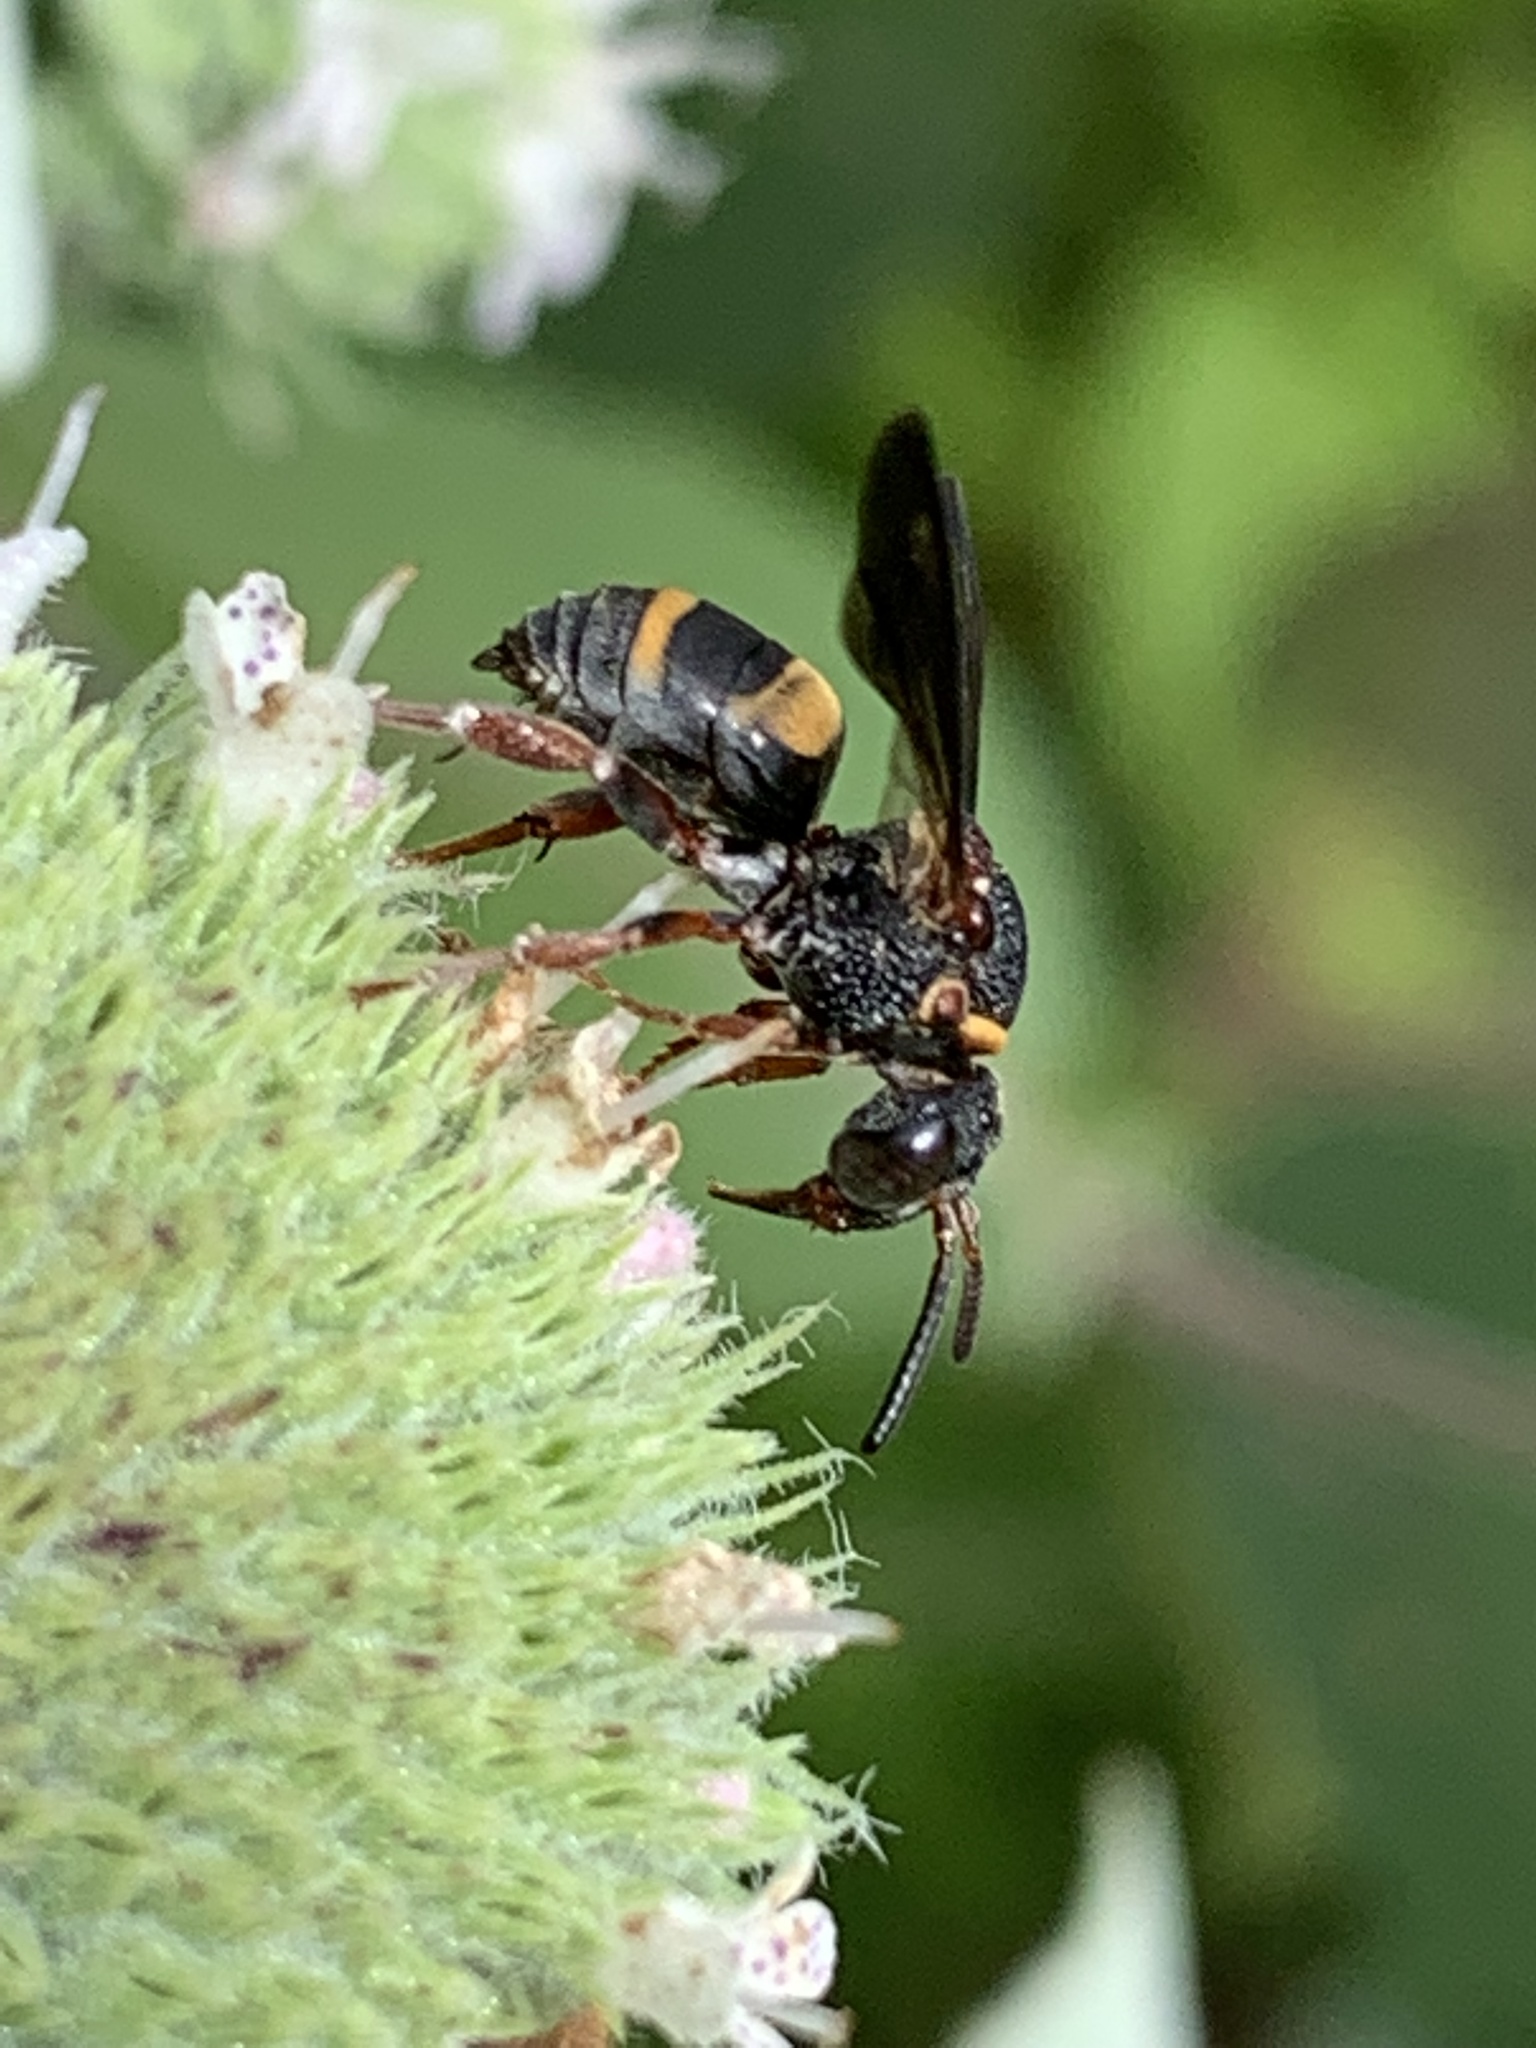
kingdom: Animalia
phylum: Arthropoda
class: Insecta
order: Hymenoptera
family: Apidae
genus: Epeolus
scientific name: Epeolus bifasciatus
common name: Two-banded cellophane-cuckoo
